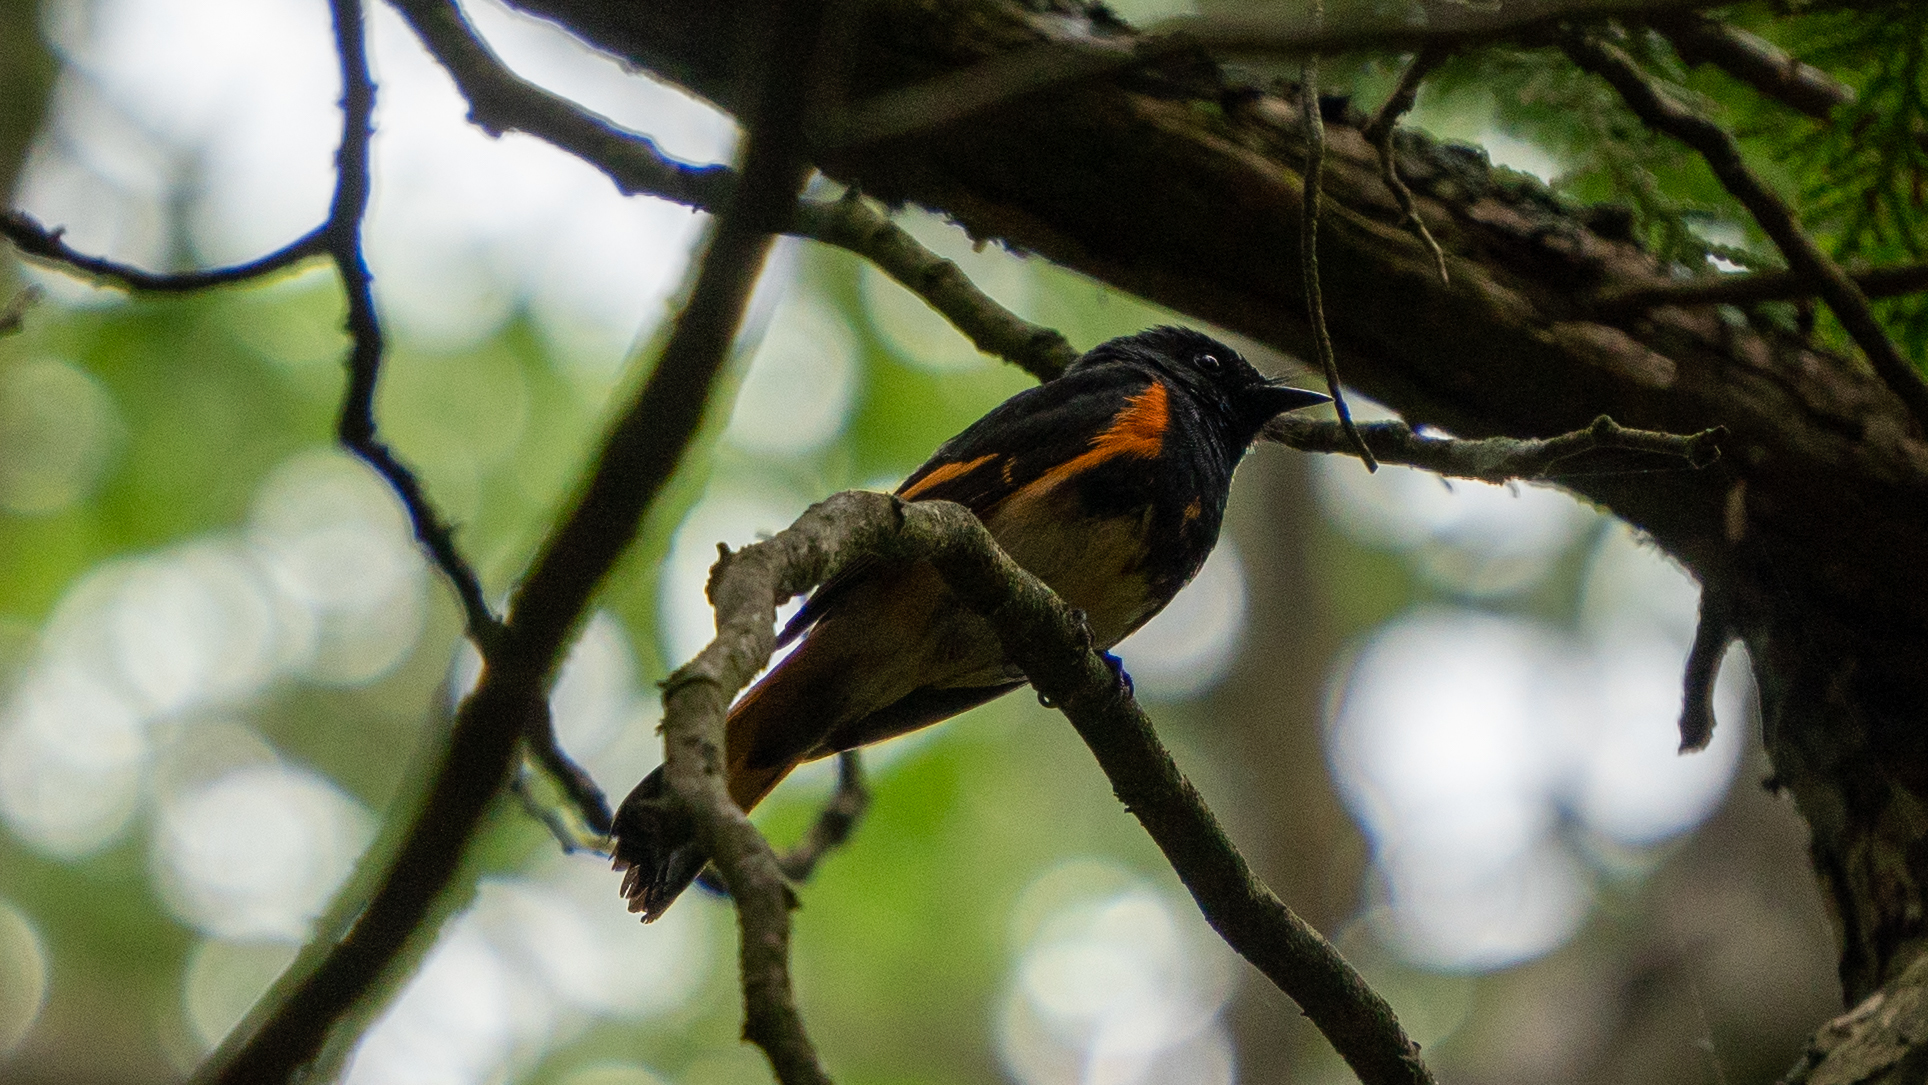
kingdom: Animalia
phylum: Chordata
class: Aves
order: Passeriformes
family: Parulidae
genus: Setophaga
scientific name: Setophaga ruticilla
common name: American redstart
